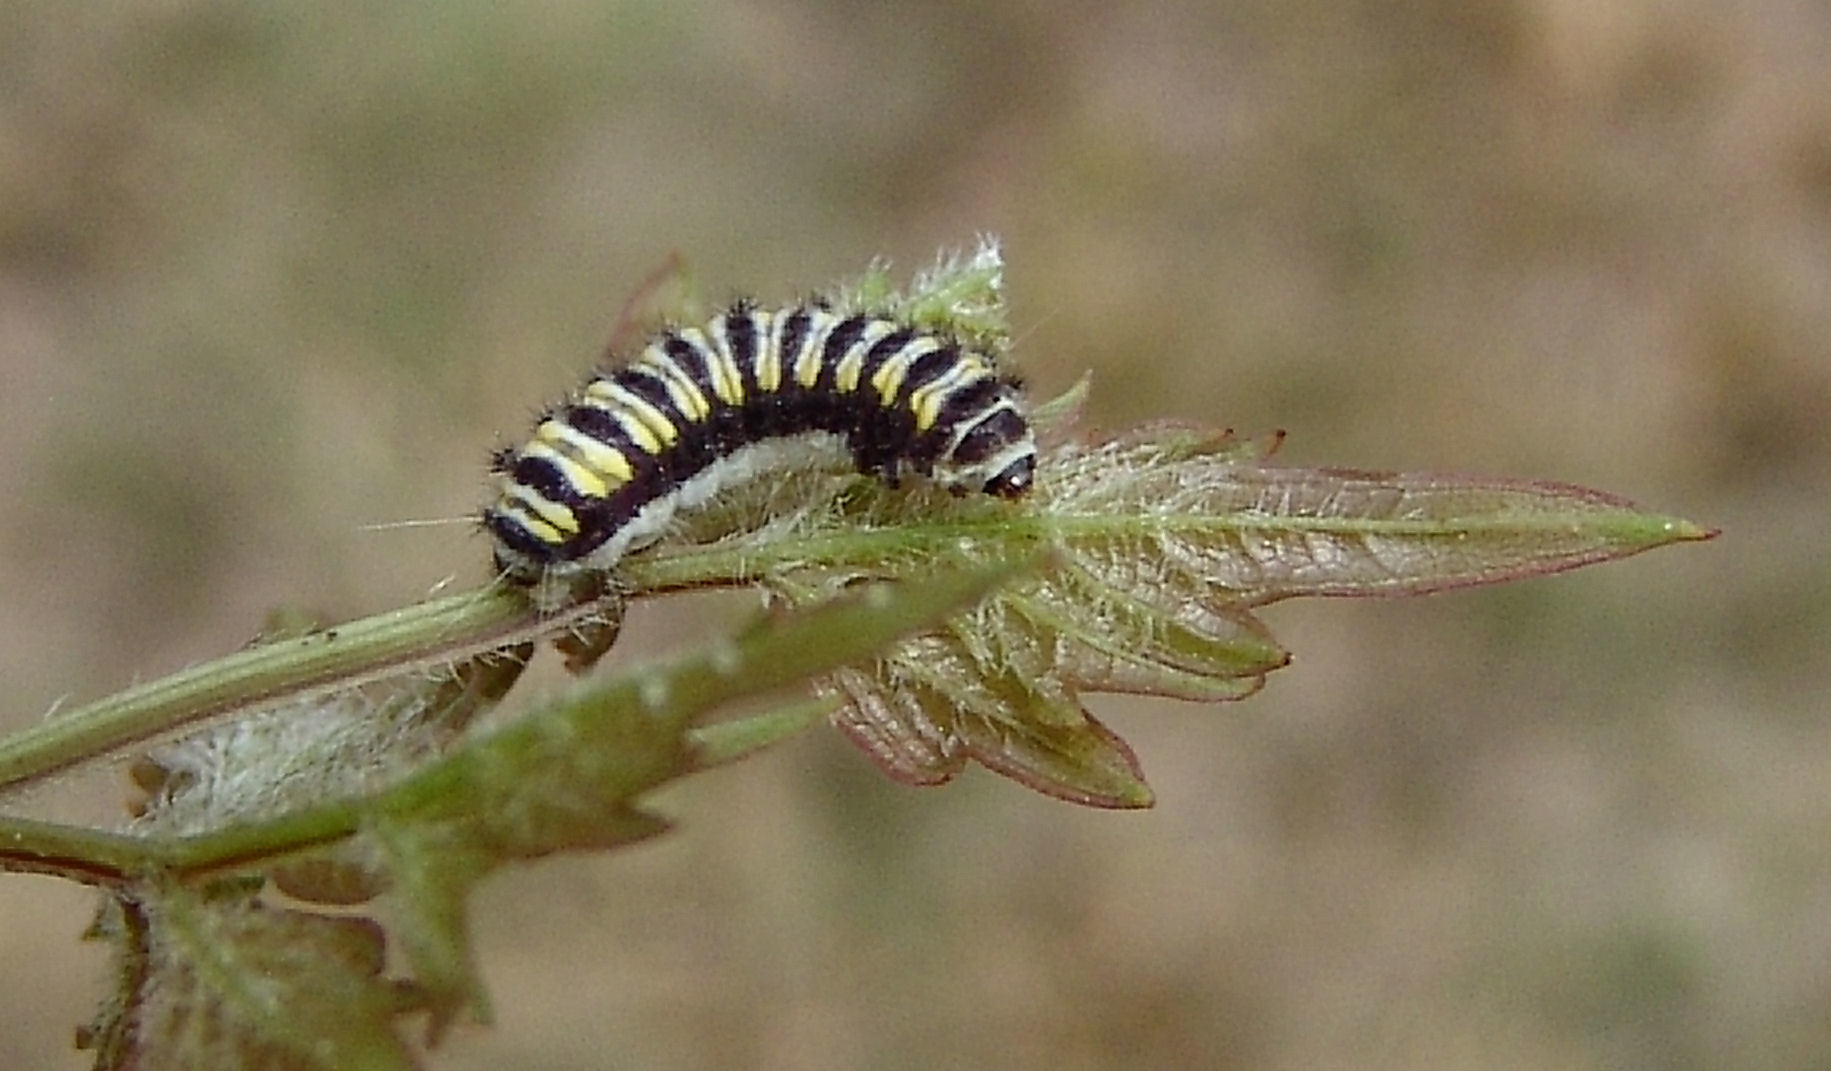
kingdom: Animalia
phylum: Arthropoda
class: Insecta
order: Lepidoptera
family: Zygaenidae
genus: Harrisina
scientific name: Harrisina americana
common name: Grapeleaf skeletonizer moth
